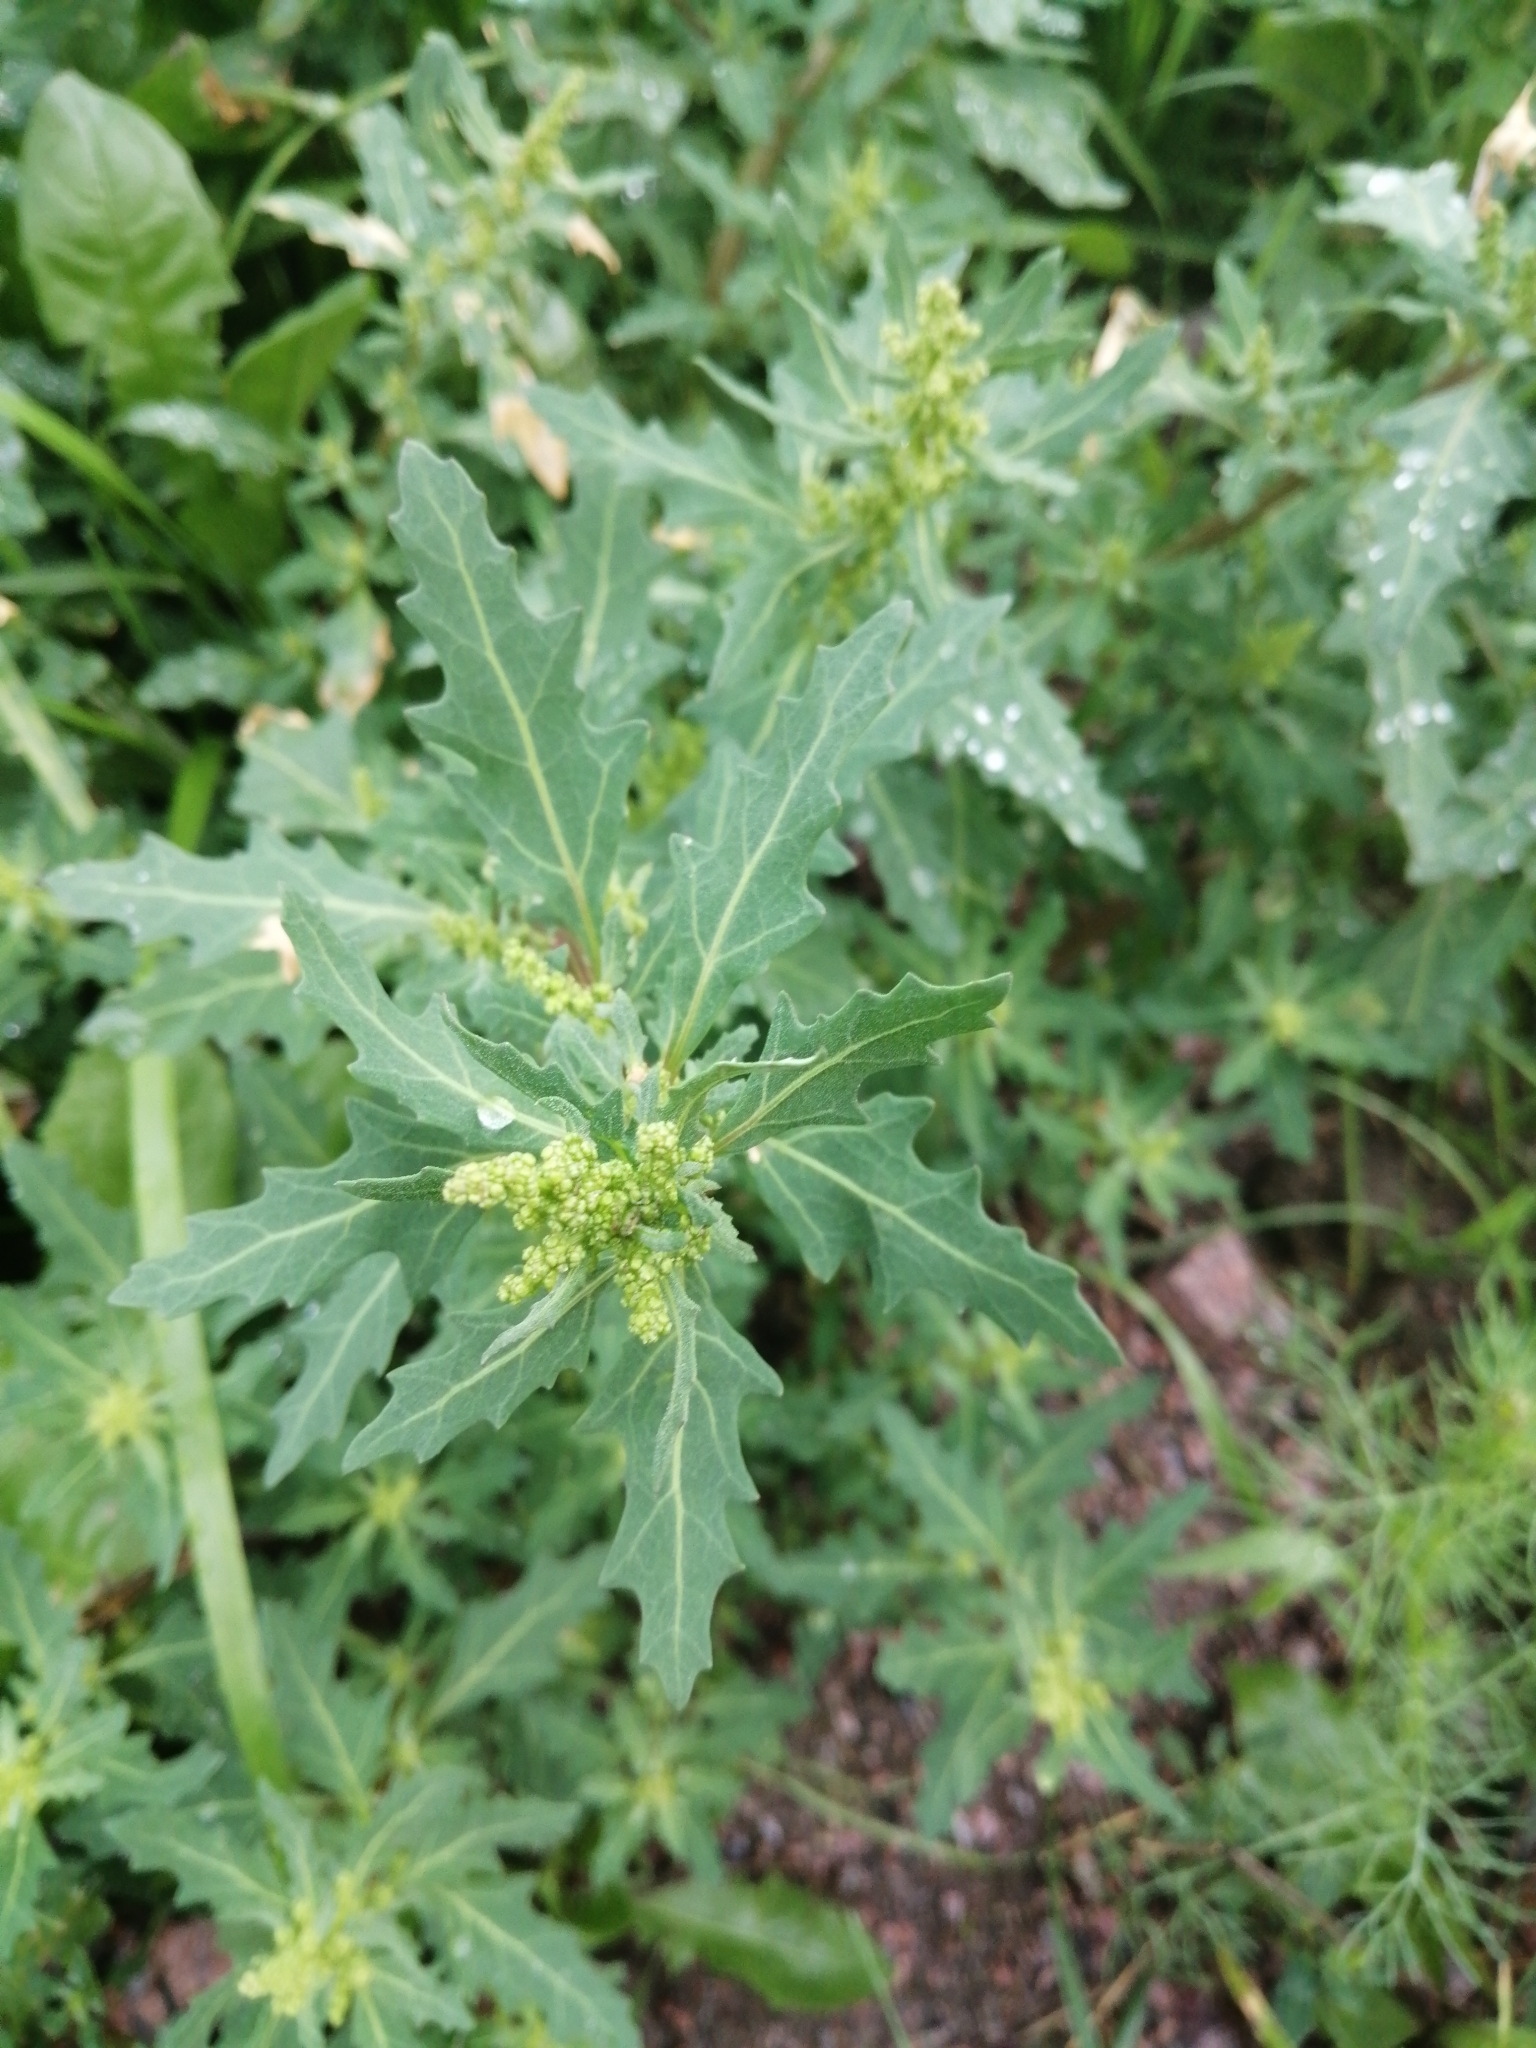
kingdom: Plantae
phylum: Tracheophyta
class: Magnoliopsida
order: Caryophyllales
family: Amaranthaceae
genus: Oxybasis
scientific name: Oxybasis glauca
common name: Glaucous goosefoot
